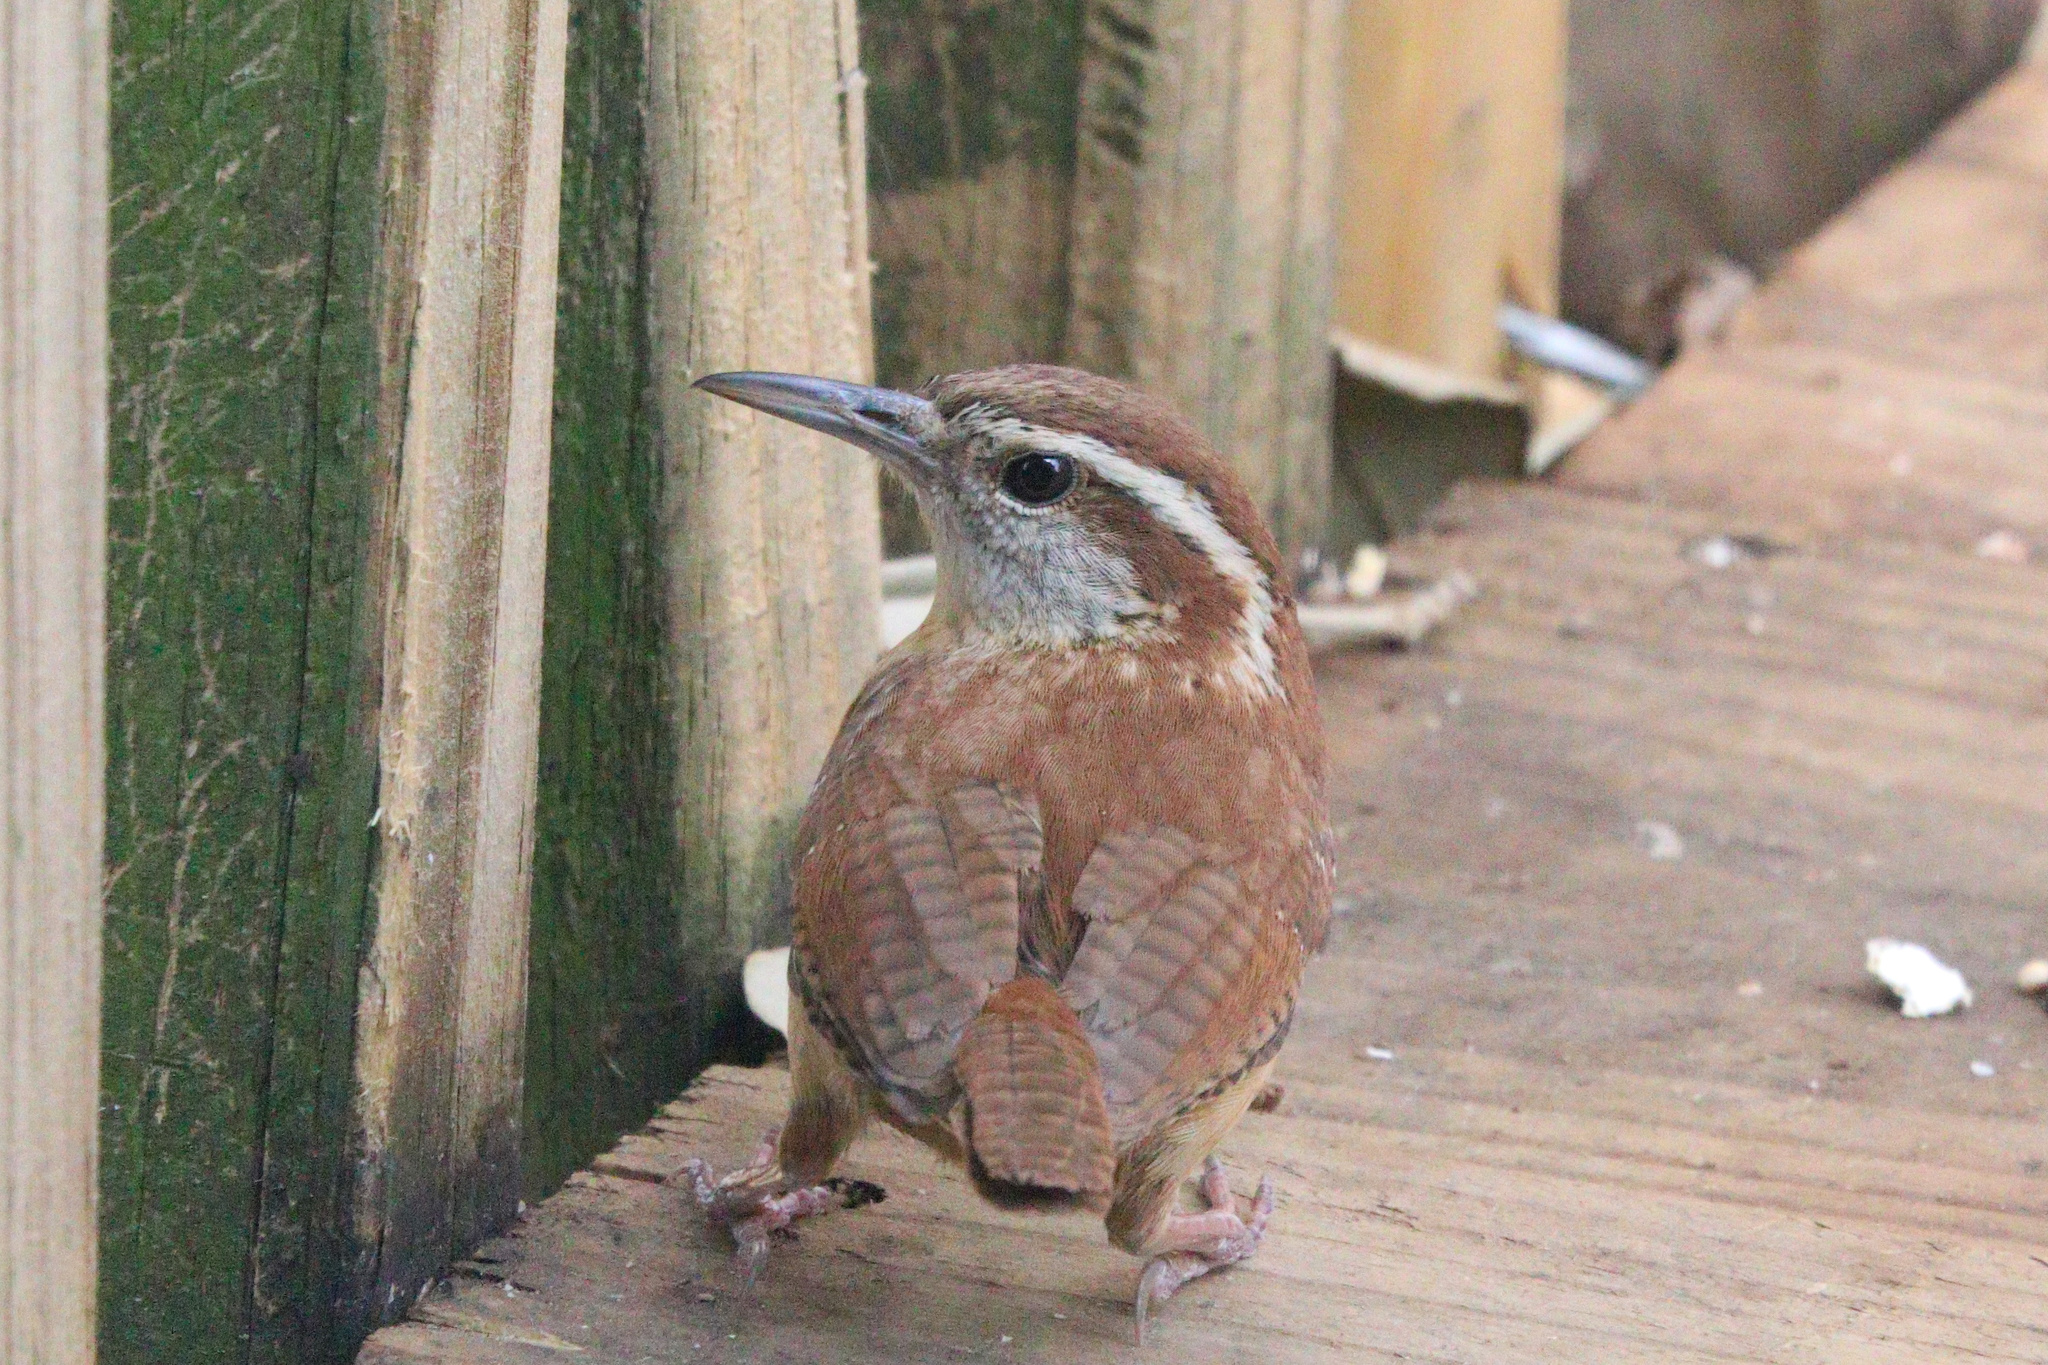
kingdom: Animalia
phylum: Chordata
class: Aves
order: Passeriformes
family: Troglodytidae
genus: Thryothorus
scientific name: Thryothorus ludovicianus
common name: Carolina wren
